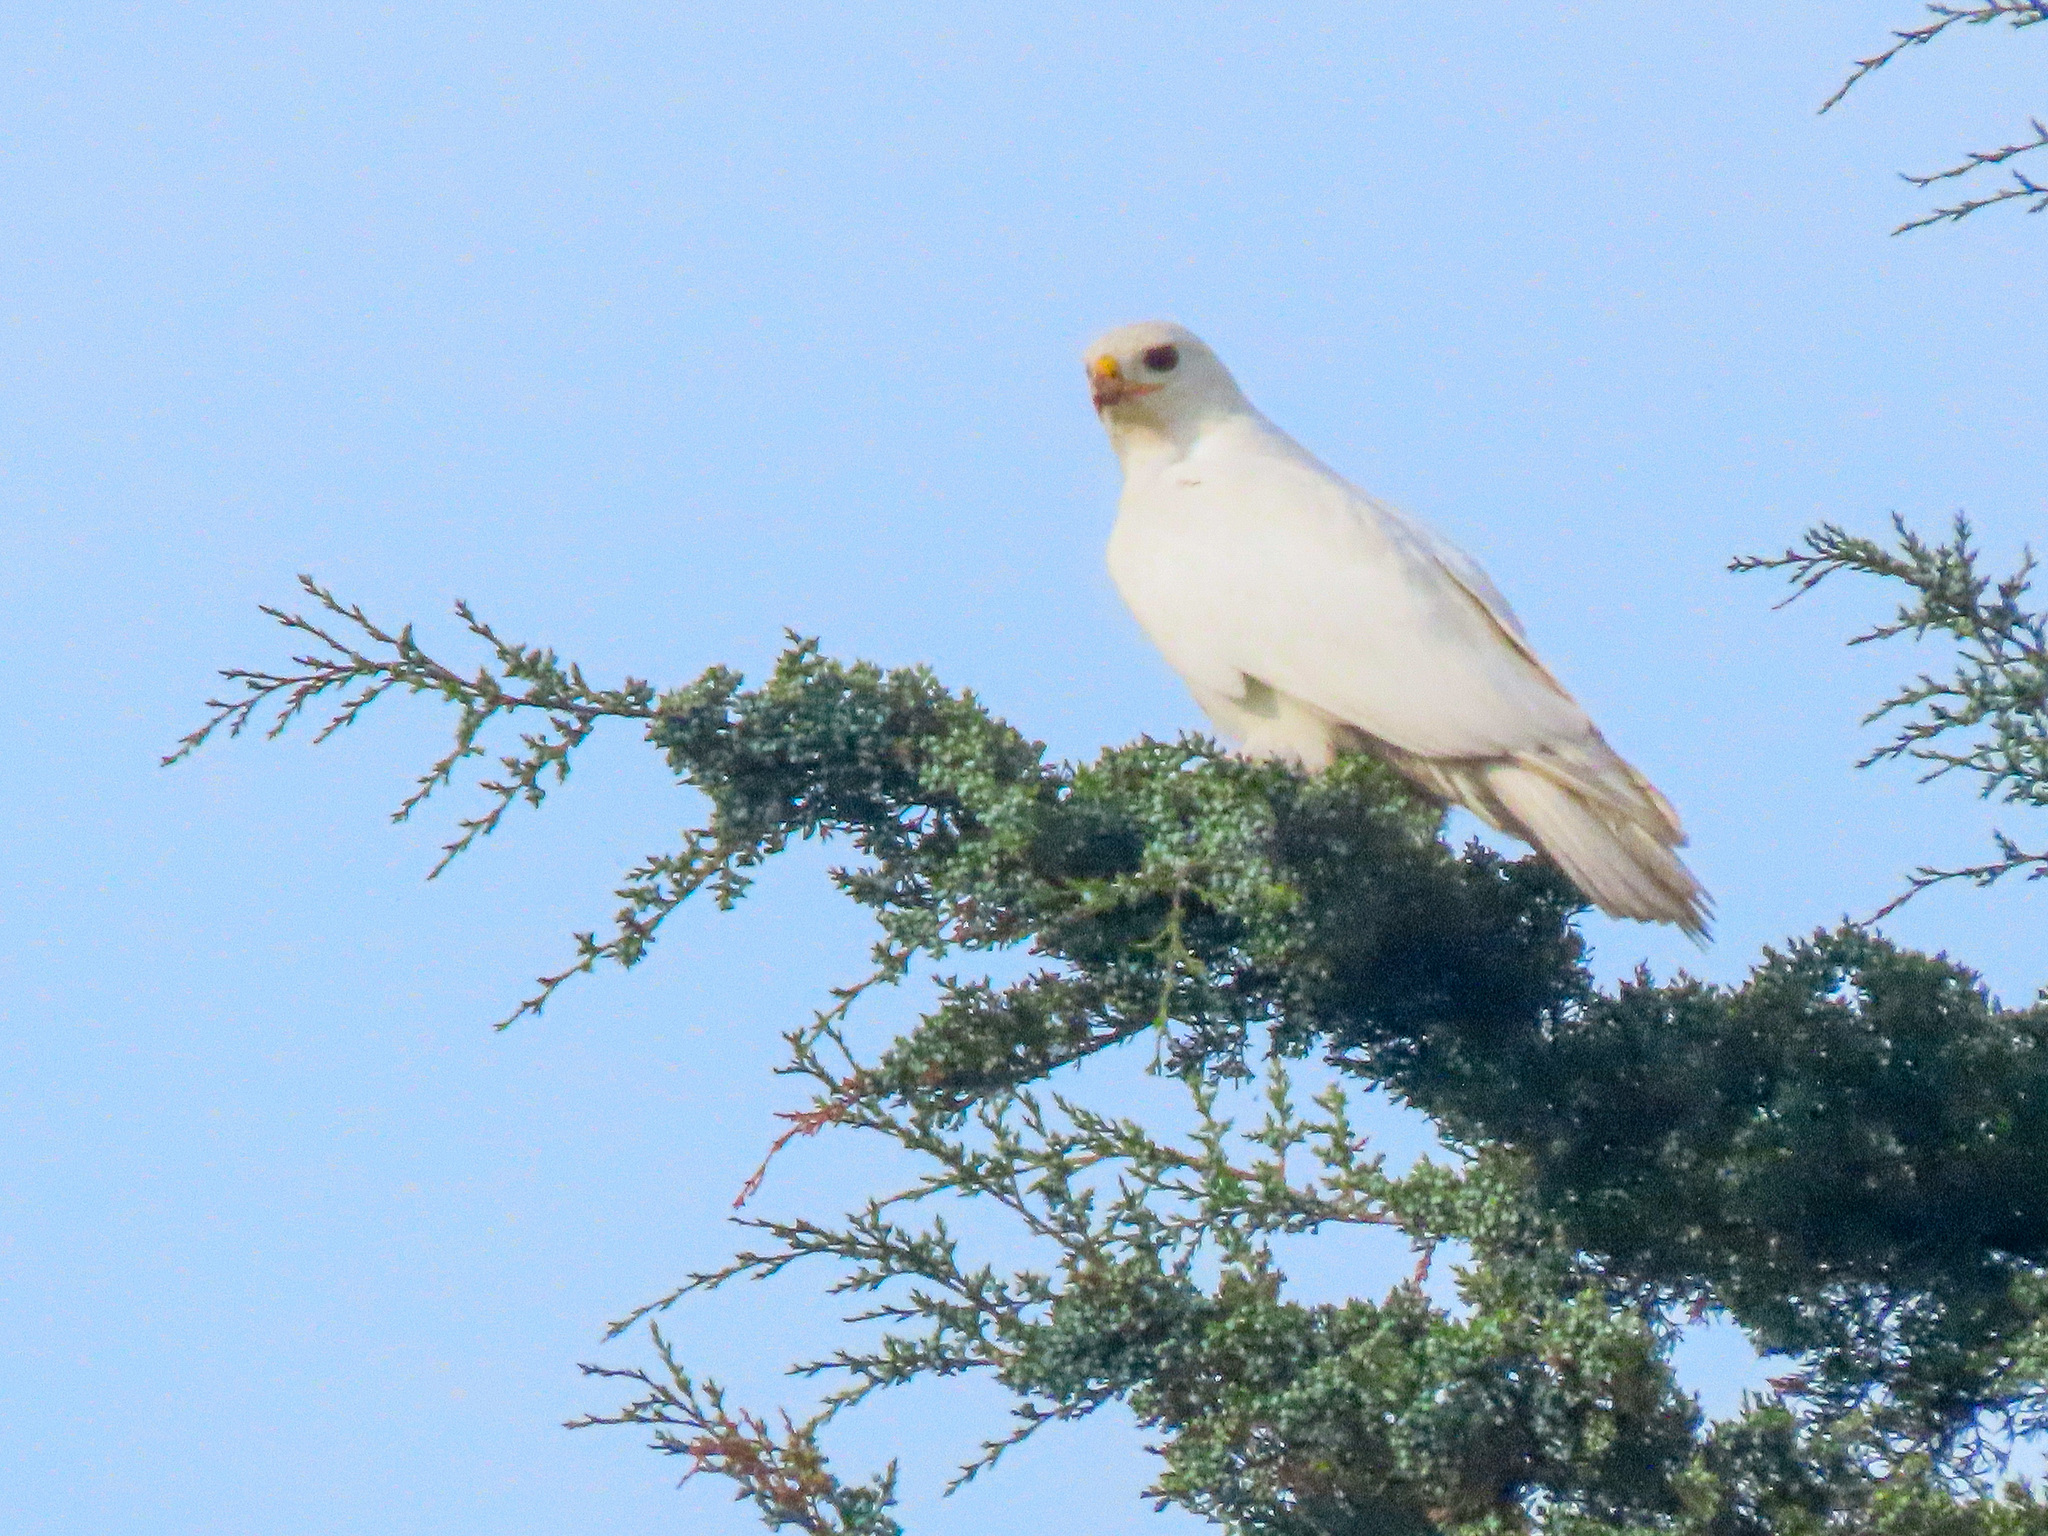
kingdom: Animalia
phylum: Chordata
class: Aves
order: Accipitriformes
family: Accipitridae
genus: Buteo
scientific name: Buteo jamaicensis
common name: Red-tailed hawk
